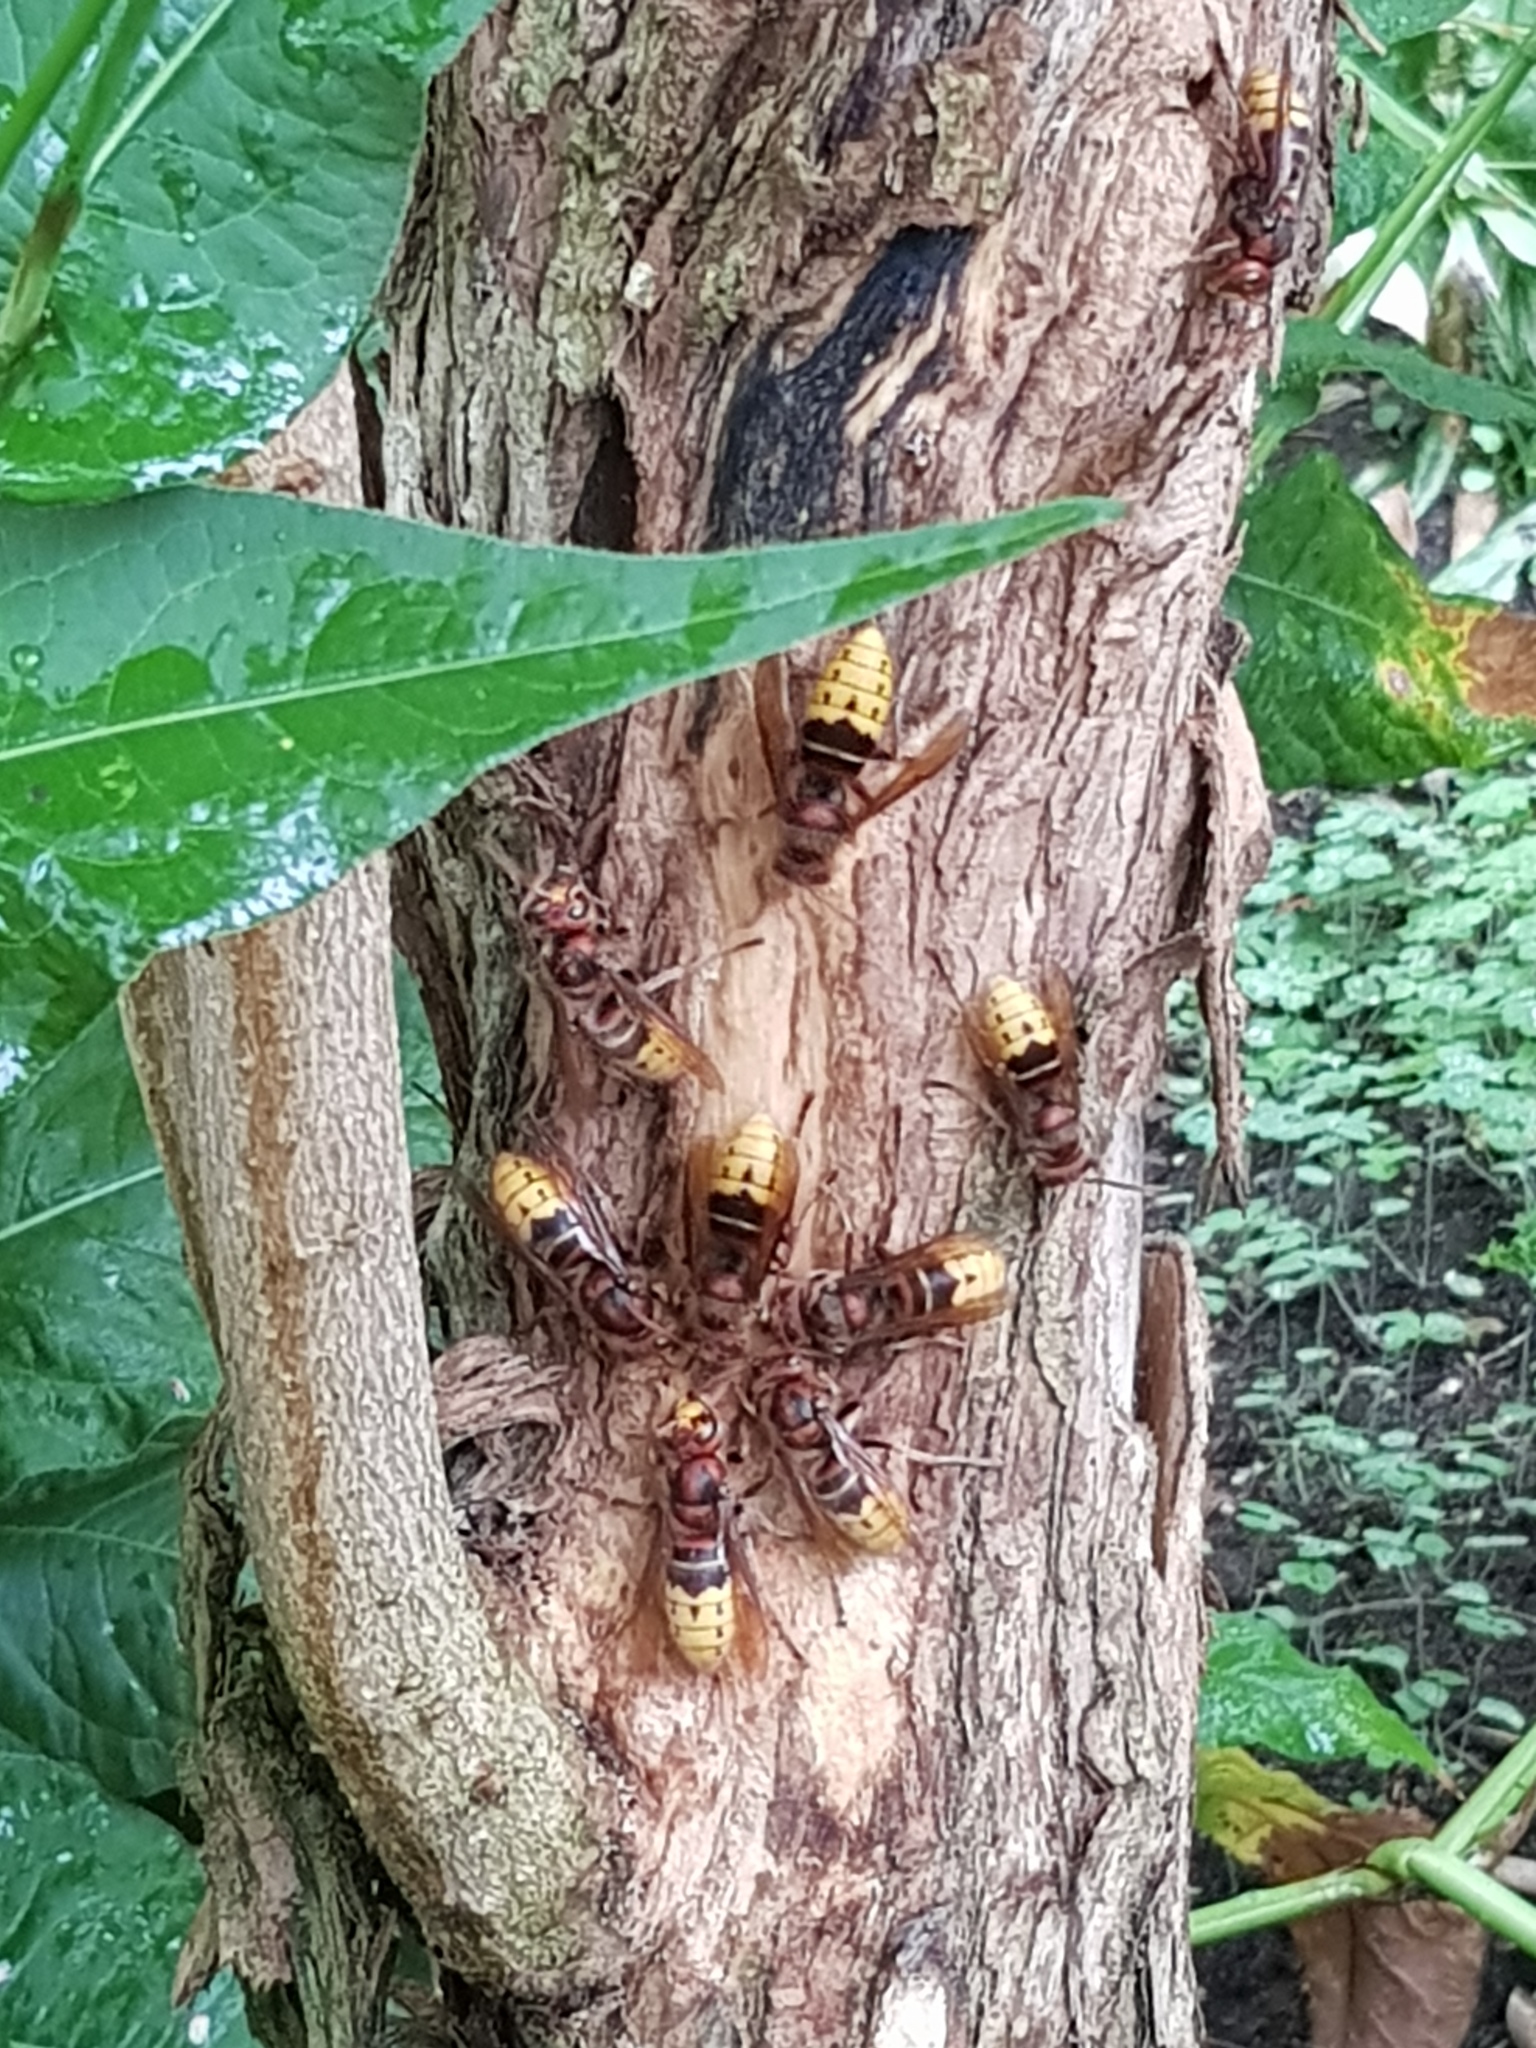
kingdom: Animalia
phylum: Arthropoda
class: Insecta
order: Hymenoptera
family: Vespidae
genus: Vespa
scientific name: Vespa crabro
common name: Hornet
